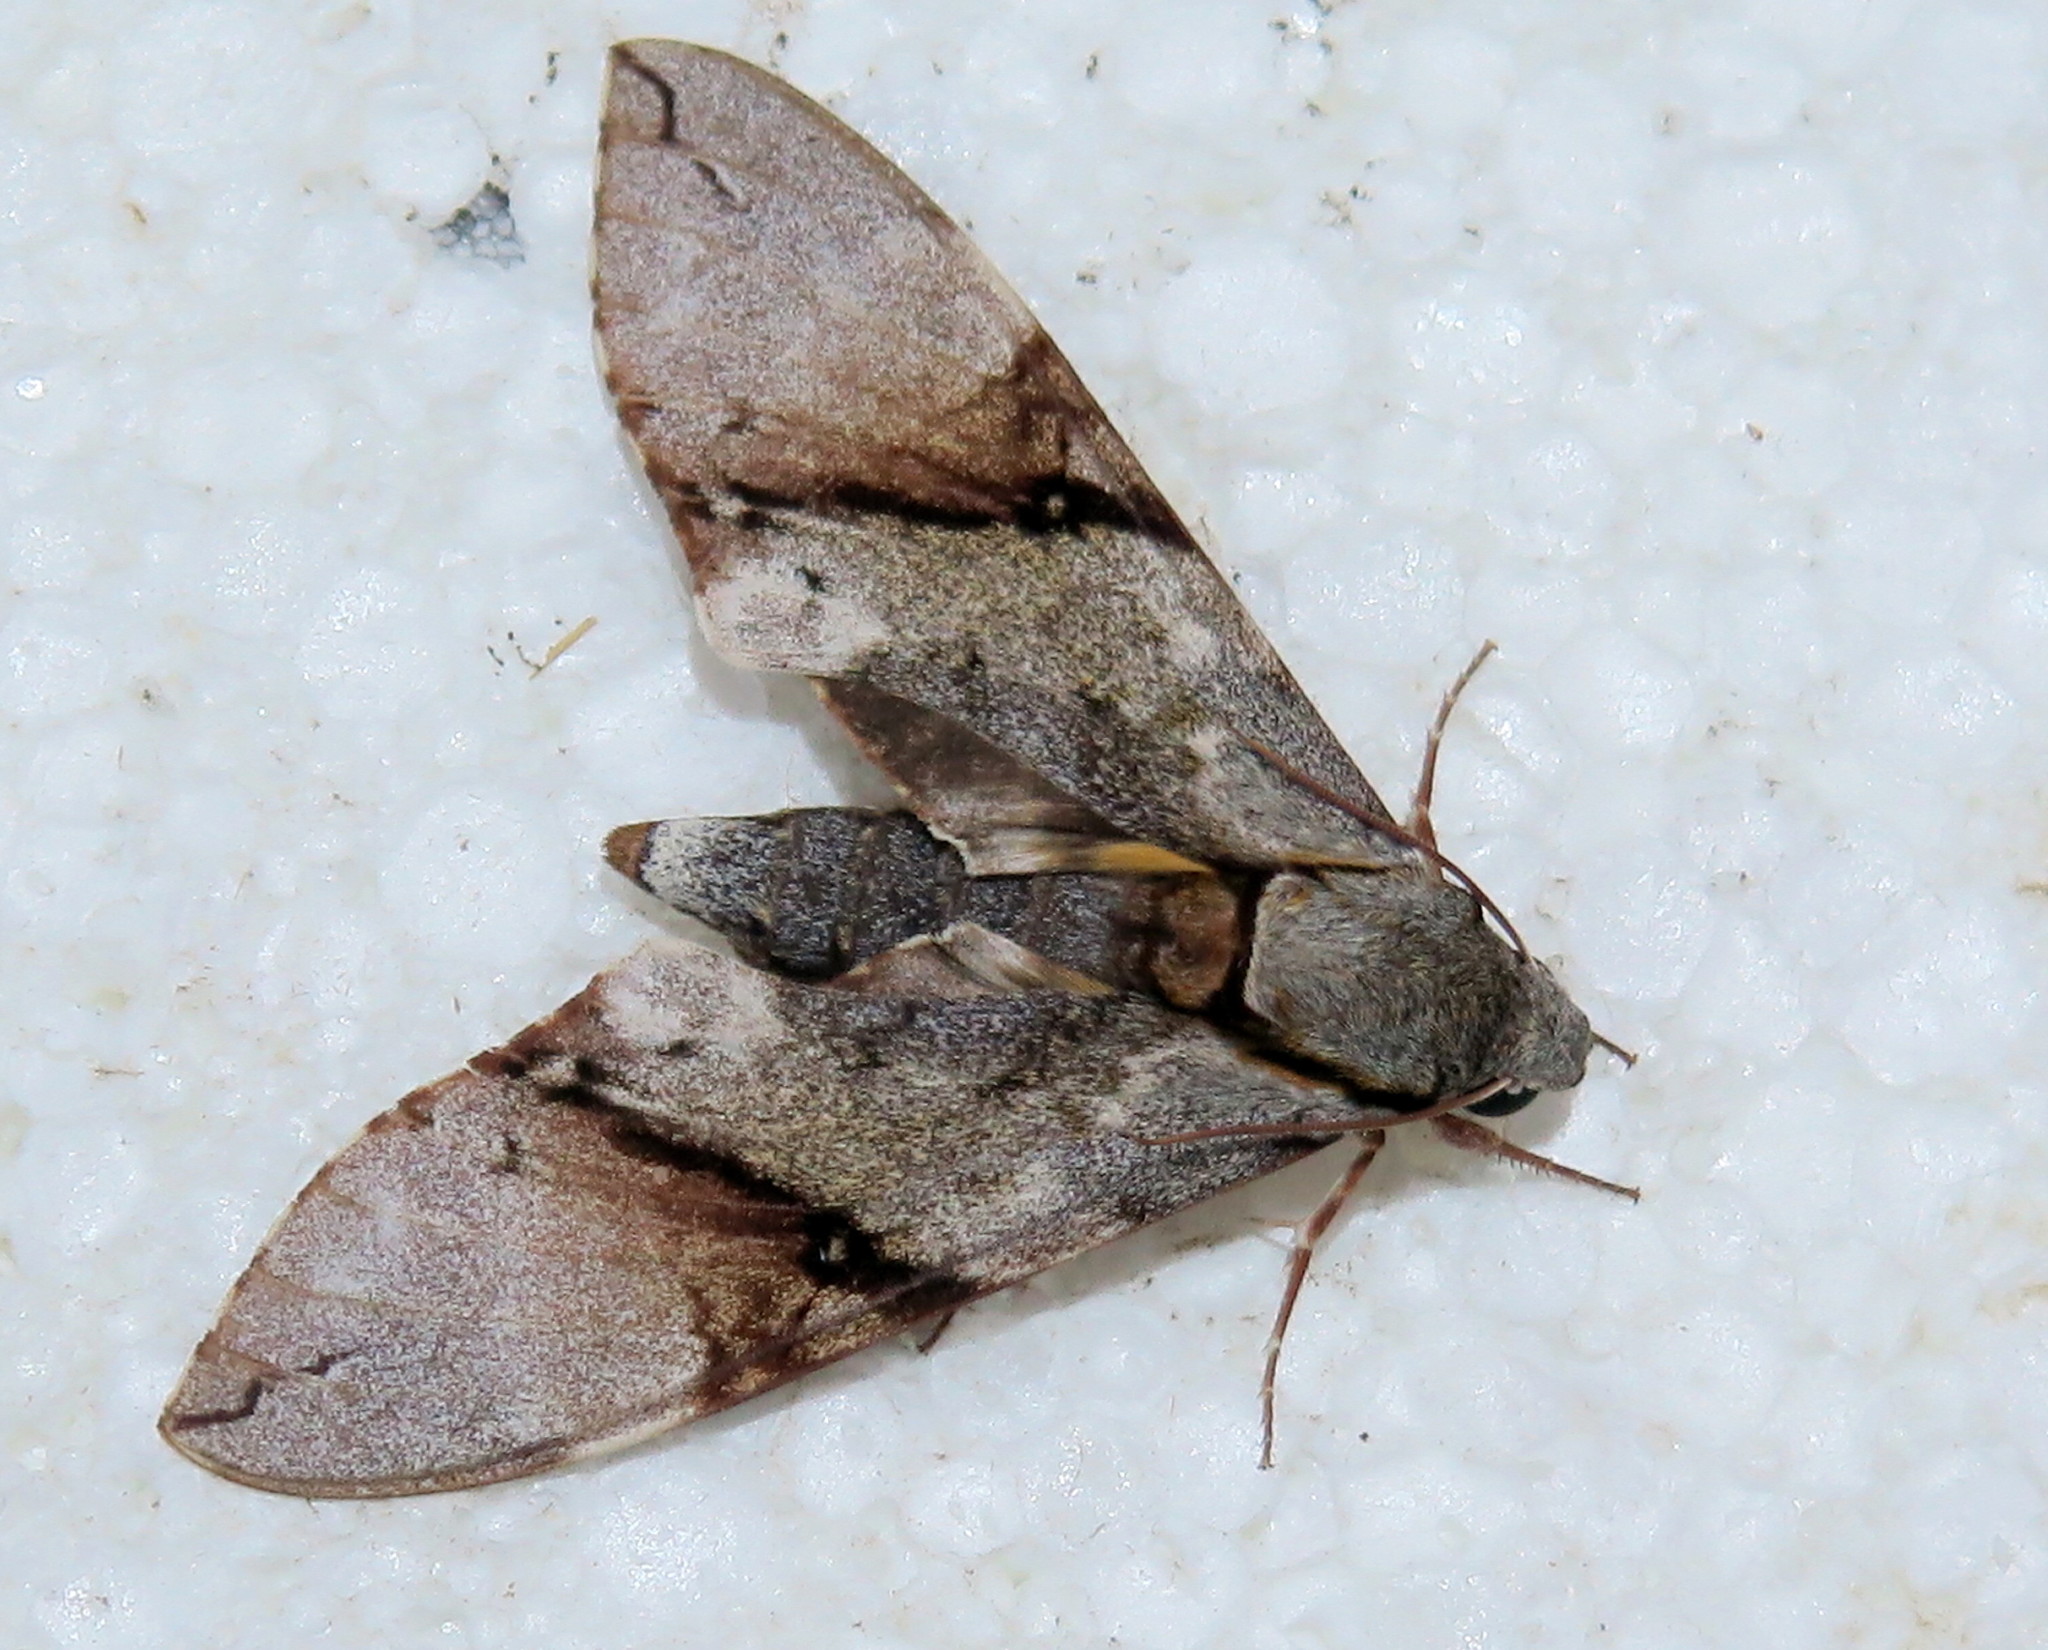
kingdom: Animalia
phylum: Arthropoda
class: Insecta
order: Lepidoptera
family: Sphingidae
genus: Manduca
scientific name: Manduca lefeburii
